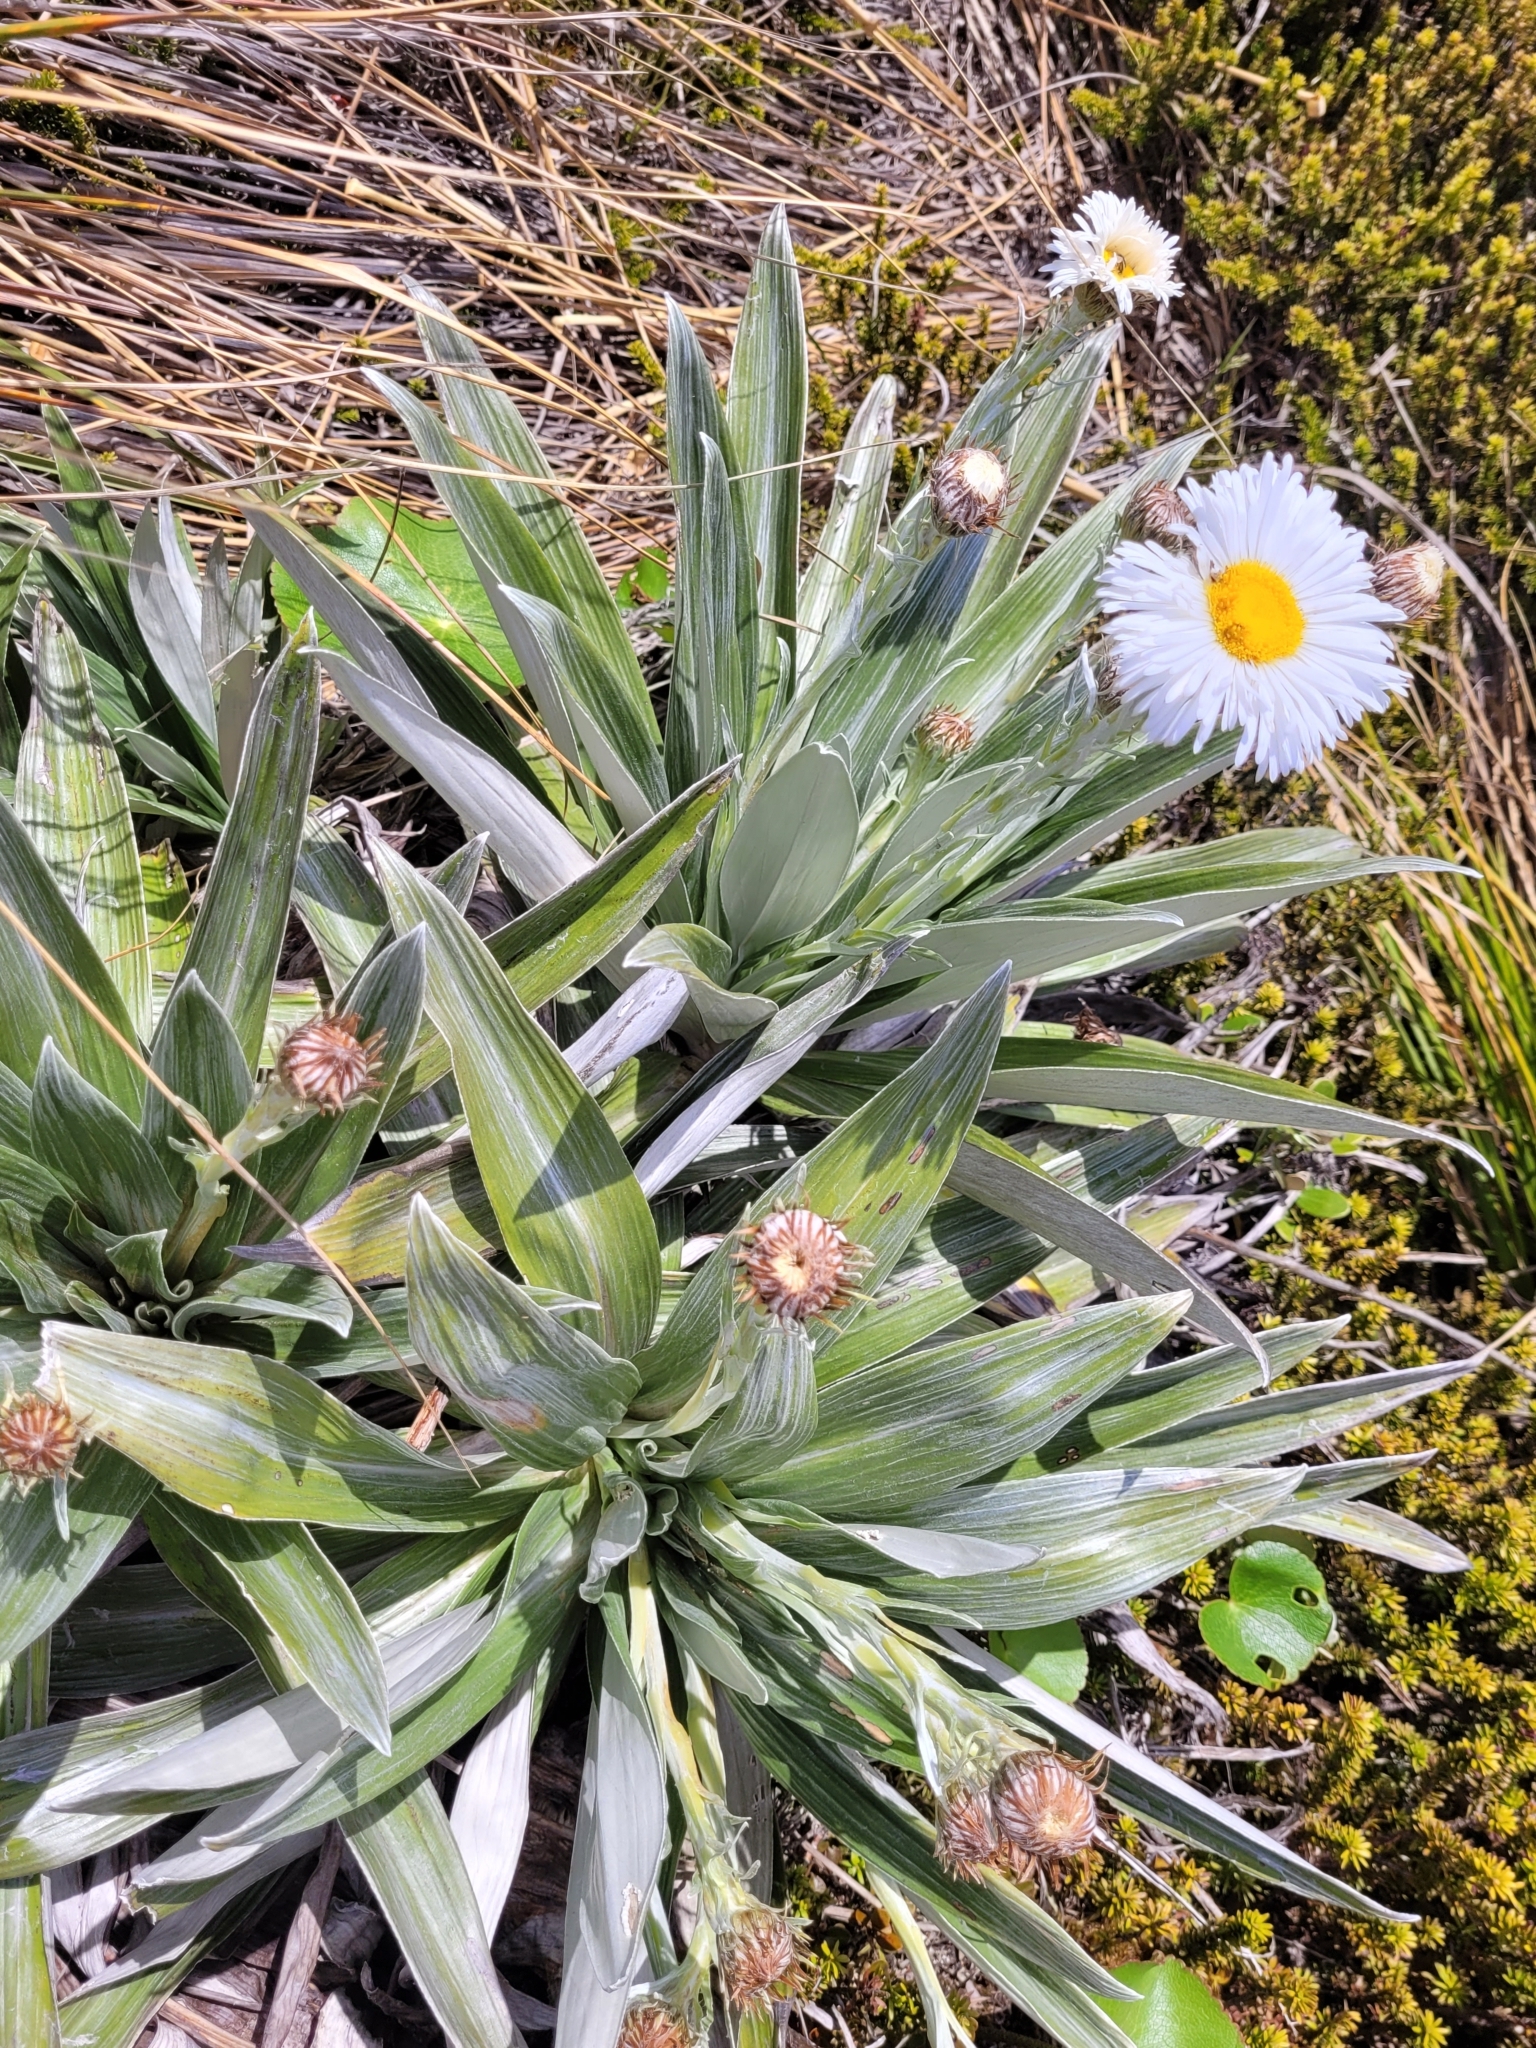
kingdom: Plantae
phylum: Tracheophyta
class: Magnoliopsida
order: Asterales
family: Asteraceae
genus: Celmisia
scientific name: Celmisia semicordata
